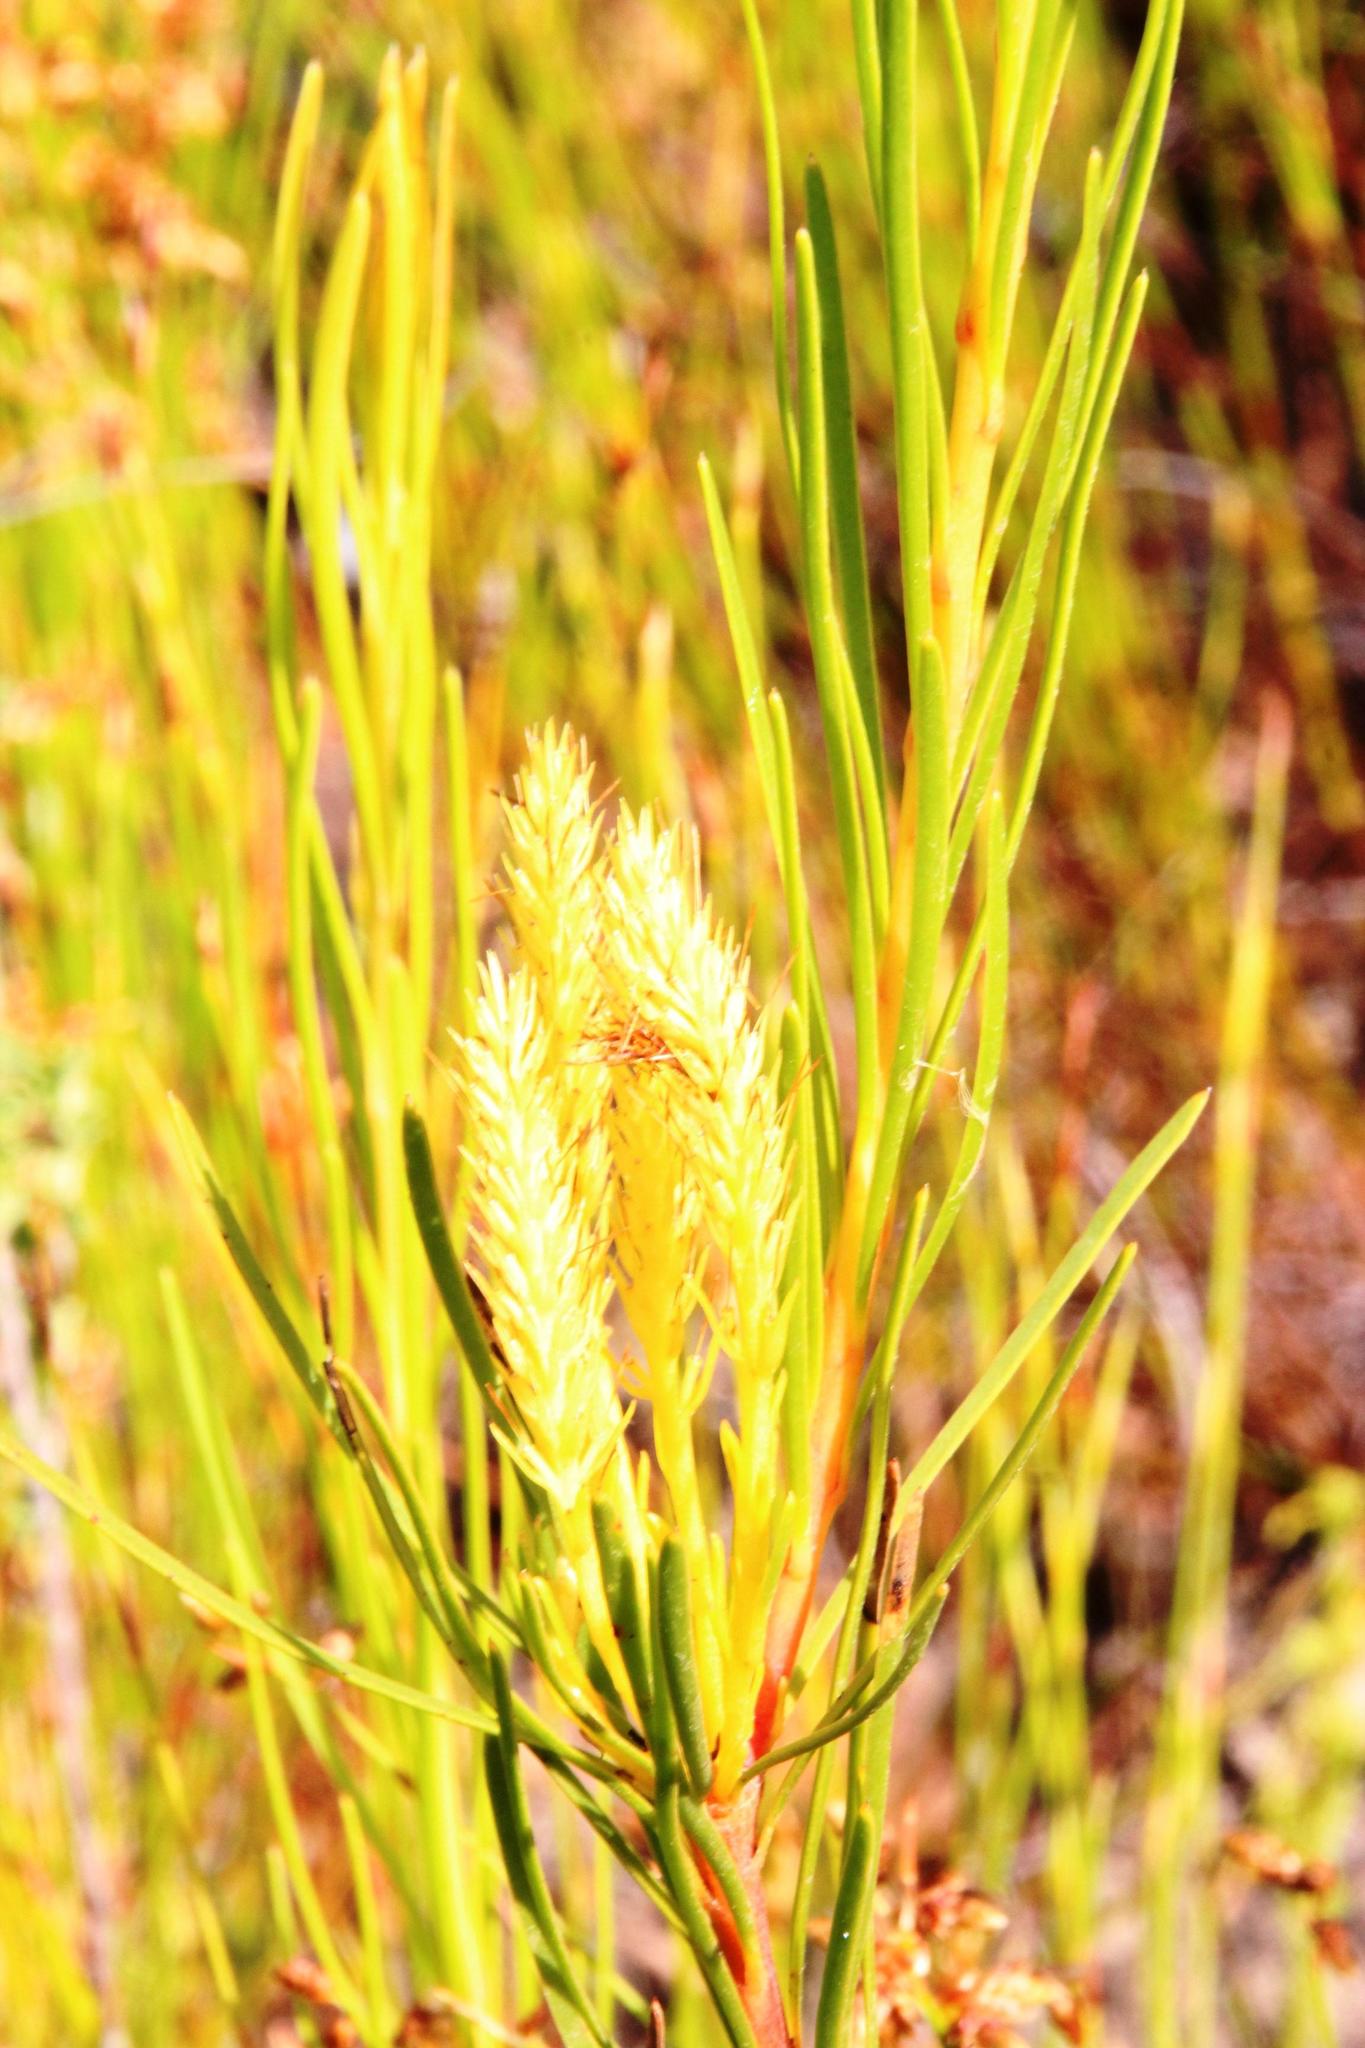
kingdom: Plantae
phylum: Tracheophyta
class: Magnoliopsida
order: Proteales
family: Proteaceae
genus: Aulax
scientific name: Aulax
